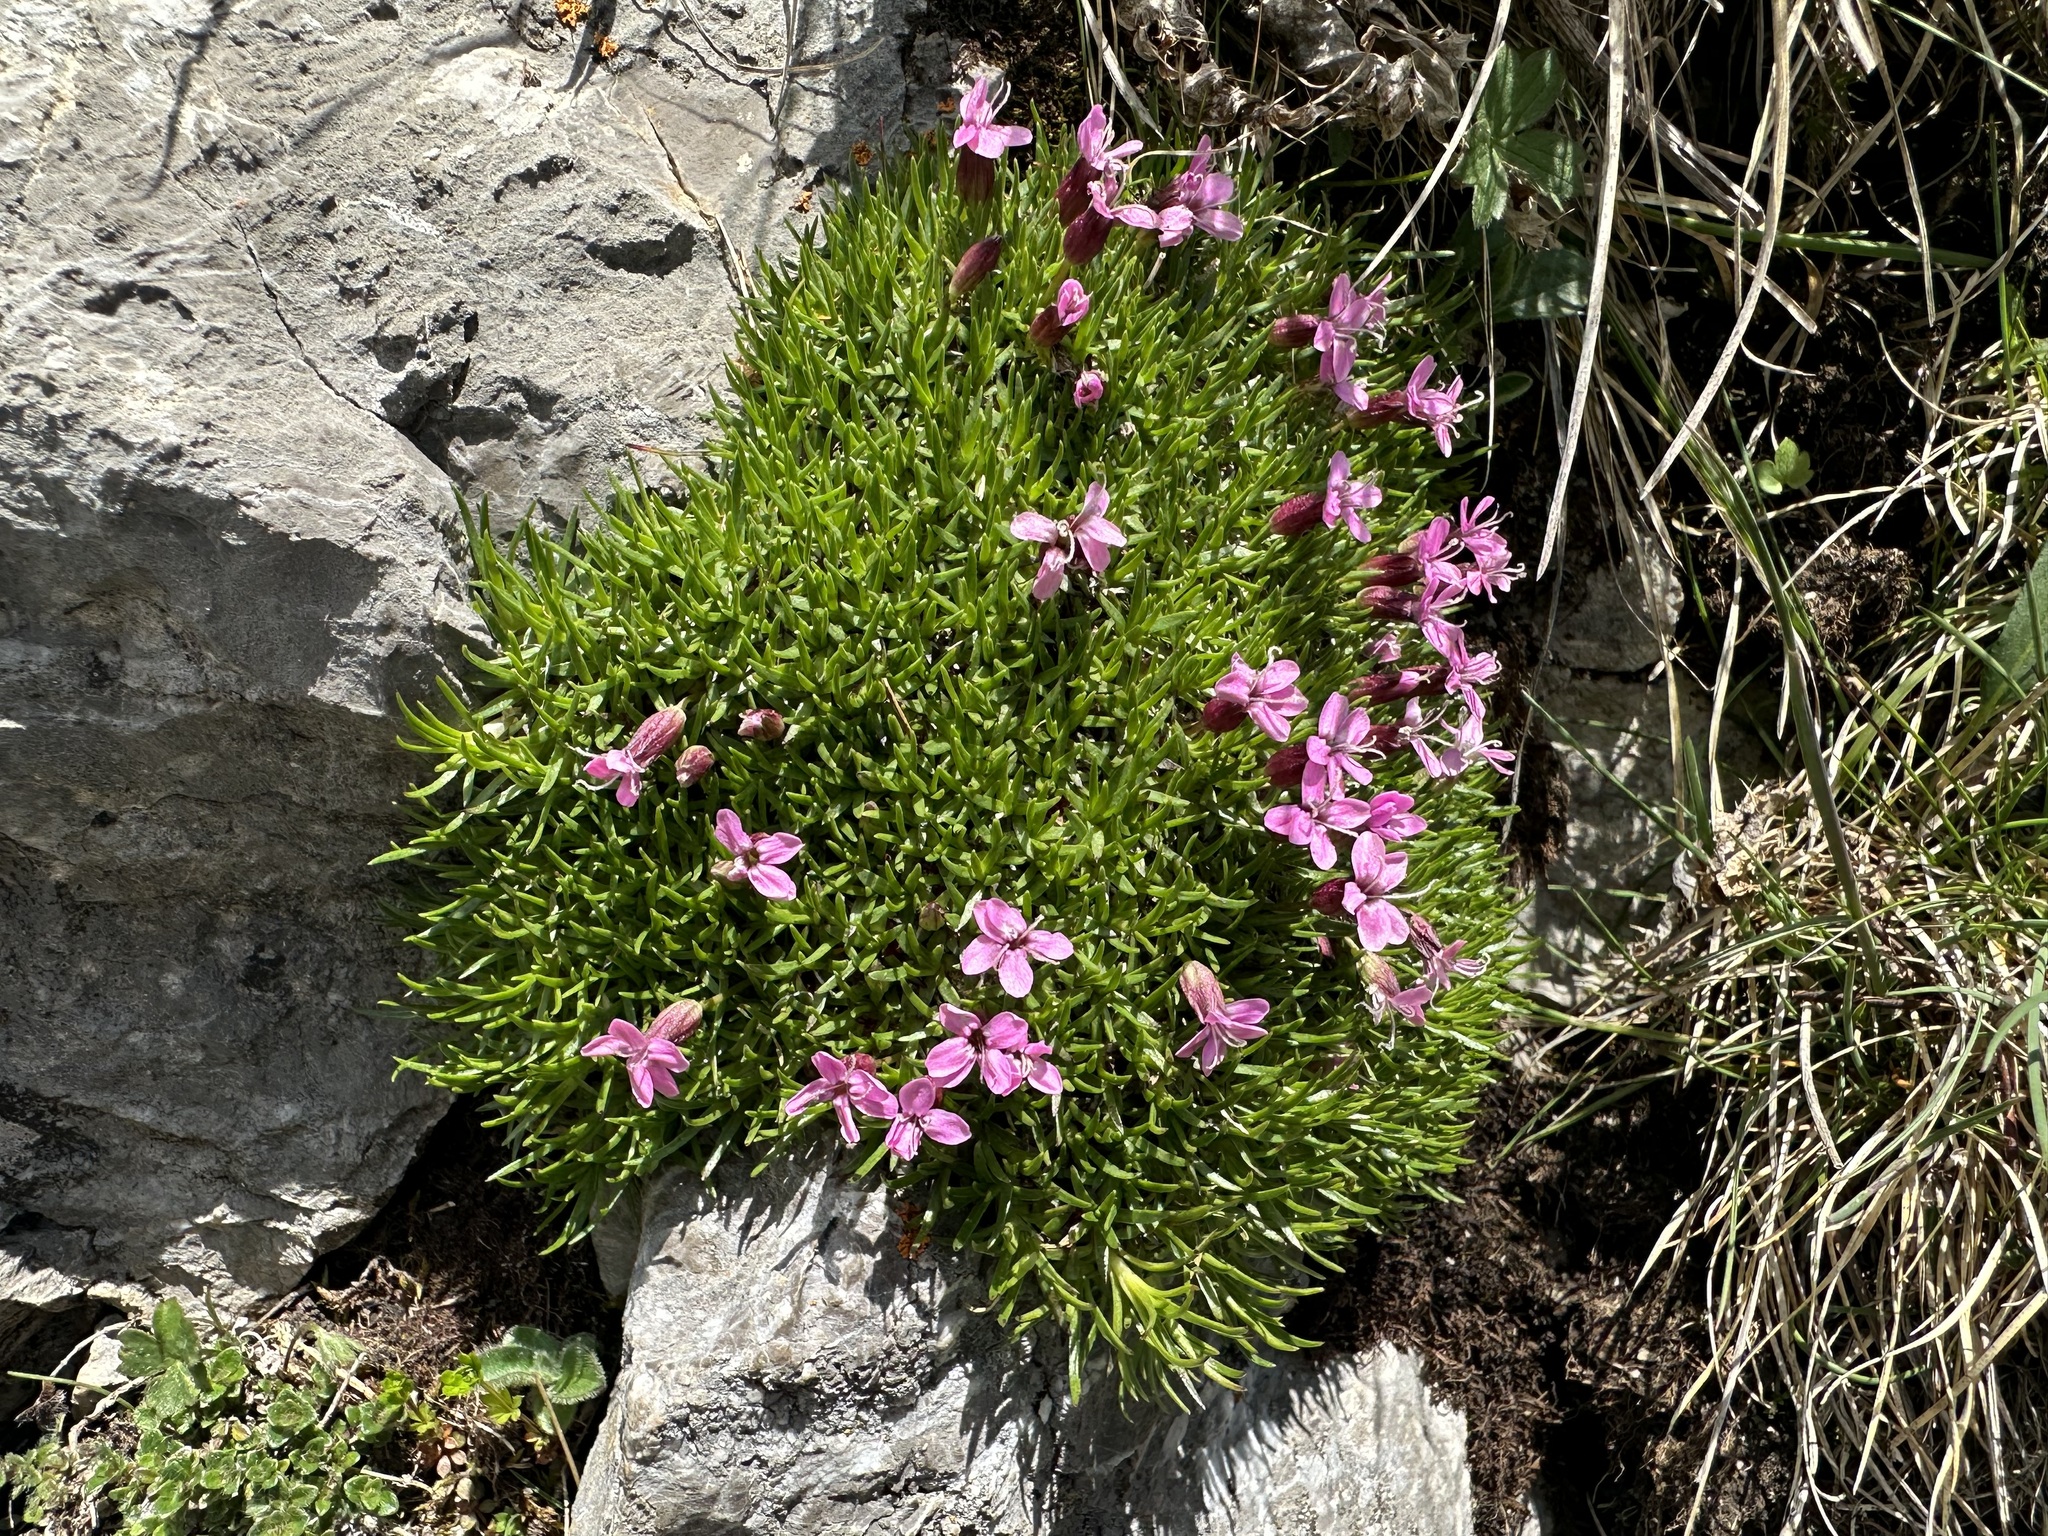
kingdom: Plantae
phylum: Tracheophyta
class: Magnoliopsida
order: Caryophyllales
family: Caryophyllaceae
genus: Silene
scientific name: Silene acaulis
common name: Moss campion
